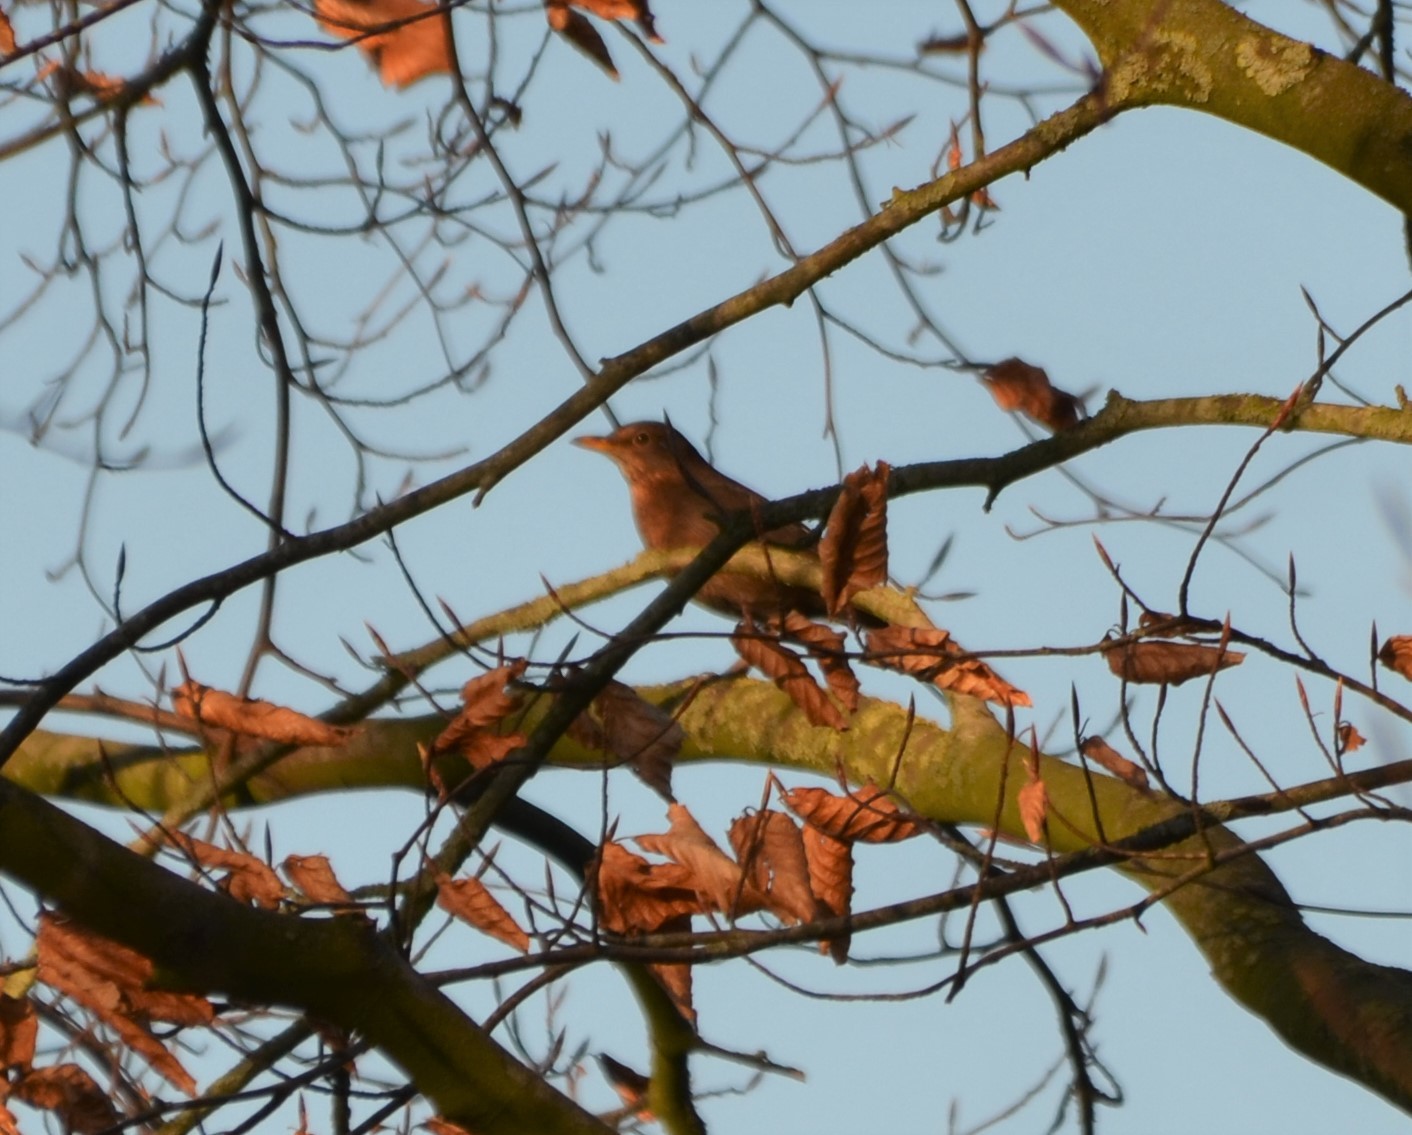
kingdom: Animalia
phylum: Chordata
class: Aves
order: Passeriformes
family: Turdidae
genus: Turdus
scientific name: Turdus merula
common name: Common blackbird
